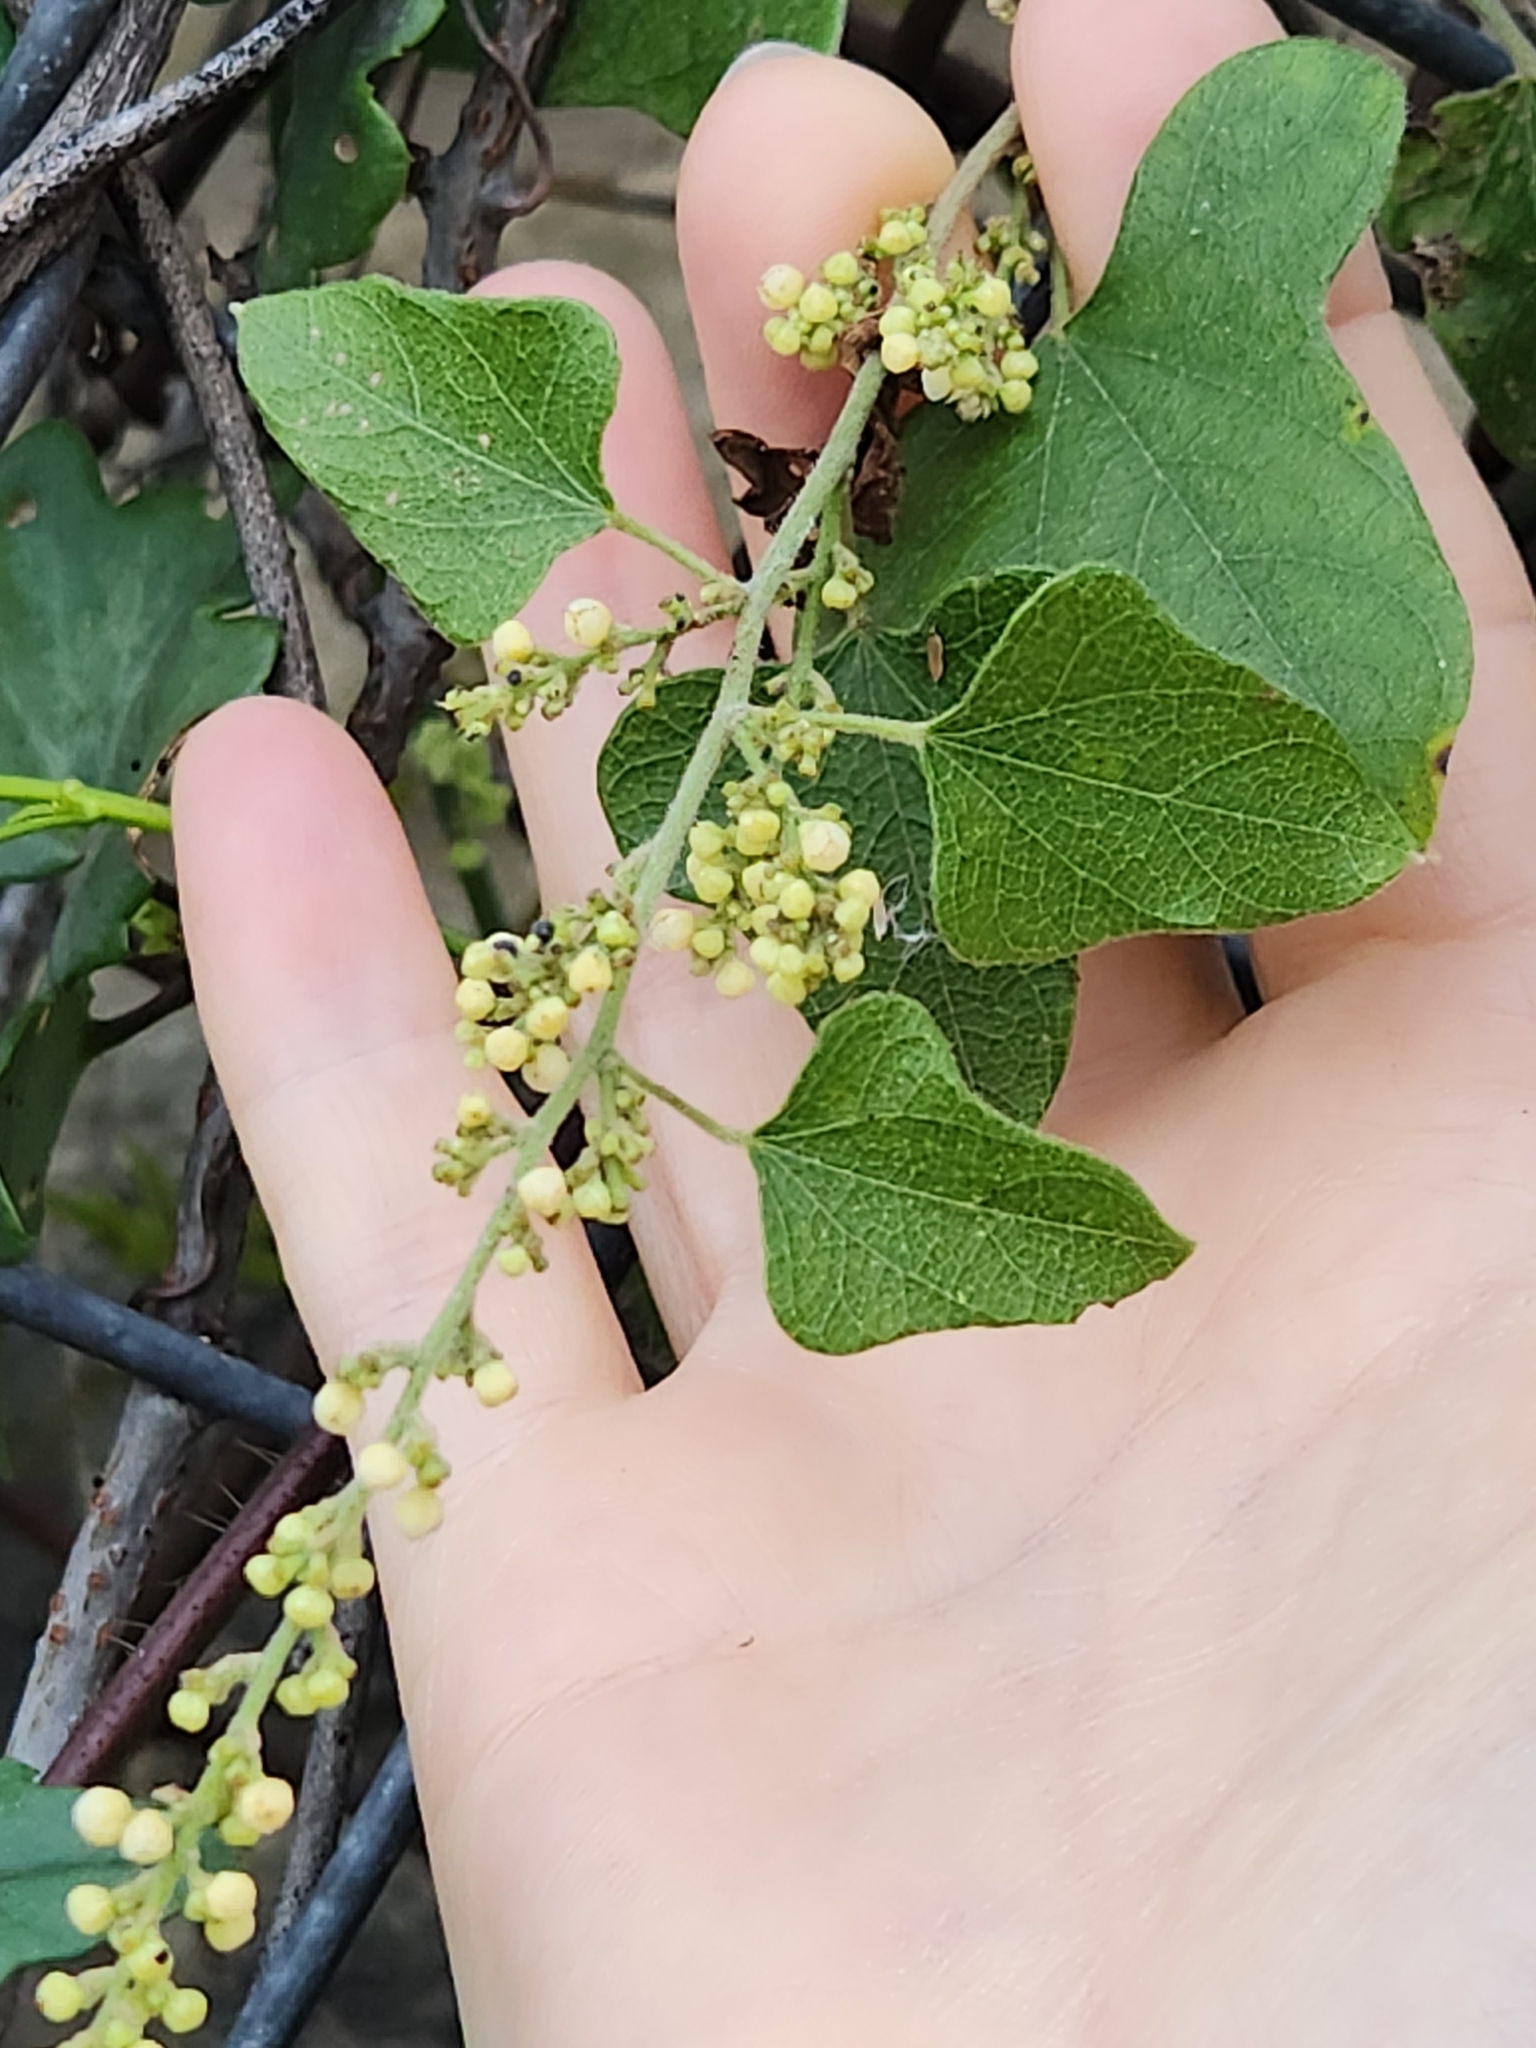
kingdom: Plantae
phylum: Tracheophyta
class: Magnoliopsida
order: Ranunculales
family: Menispermaceae
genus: Cocculus
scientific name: Cocculus carolinus
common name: Carolina moonseed
